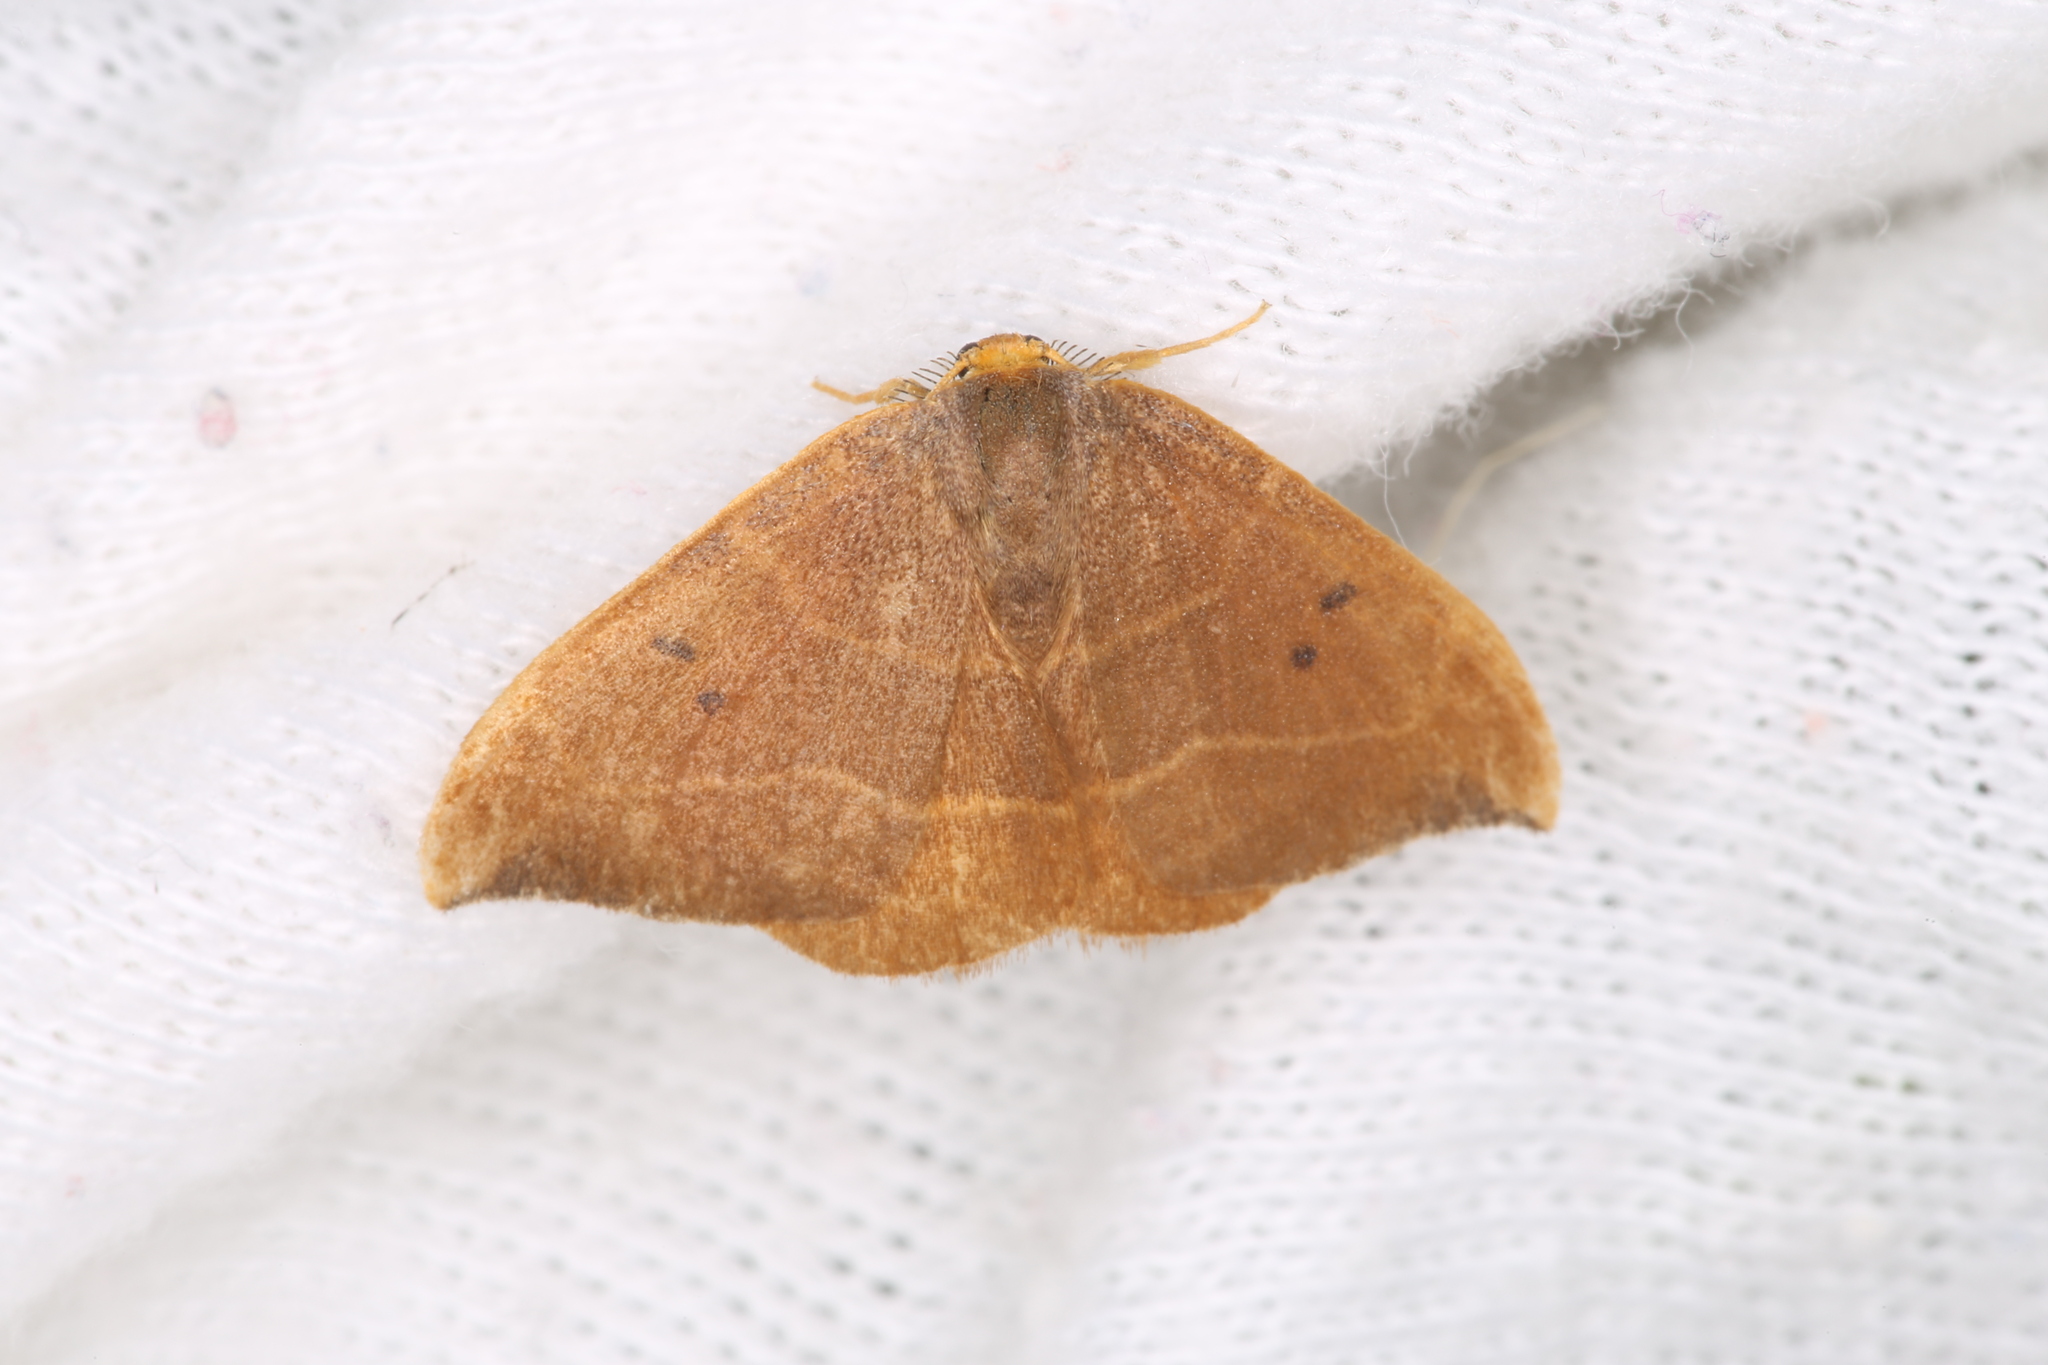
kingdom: Animalia
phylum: Arthropoda
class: Insecta
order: Lepidoptera
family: Drepanidae
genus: Watsonalla
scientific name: Watsonalla binaria
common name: Oak hook-tip
